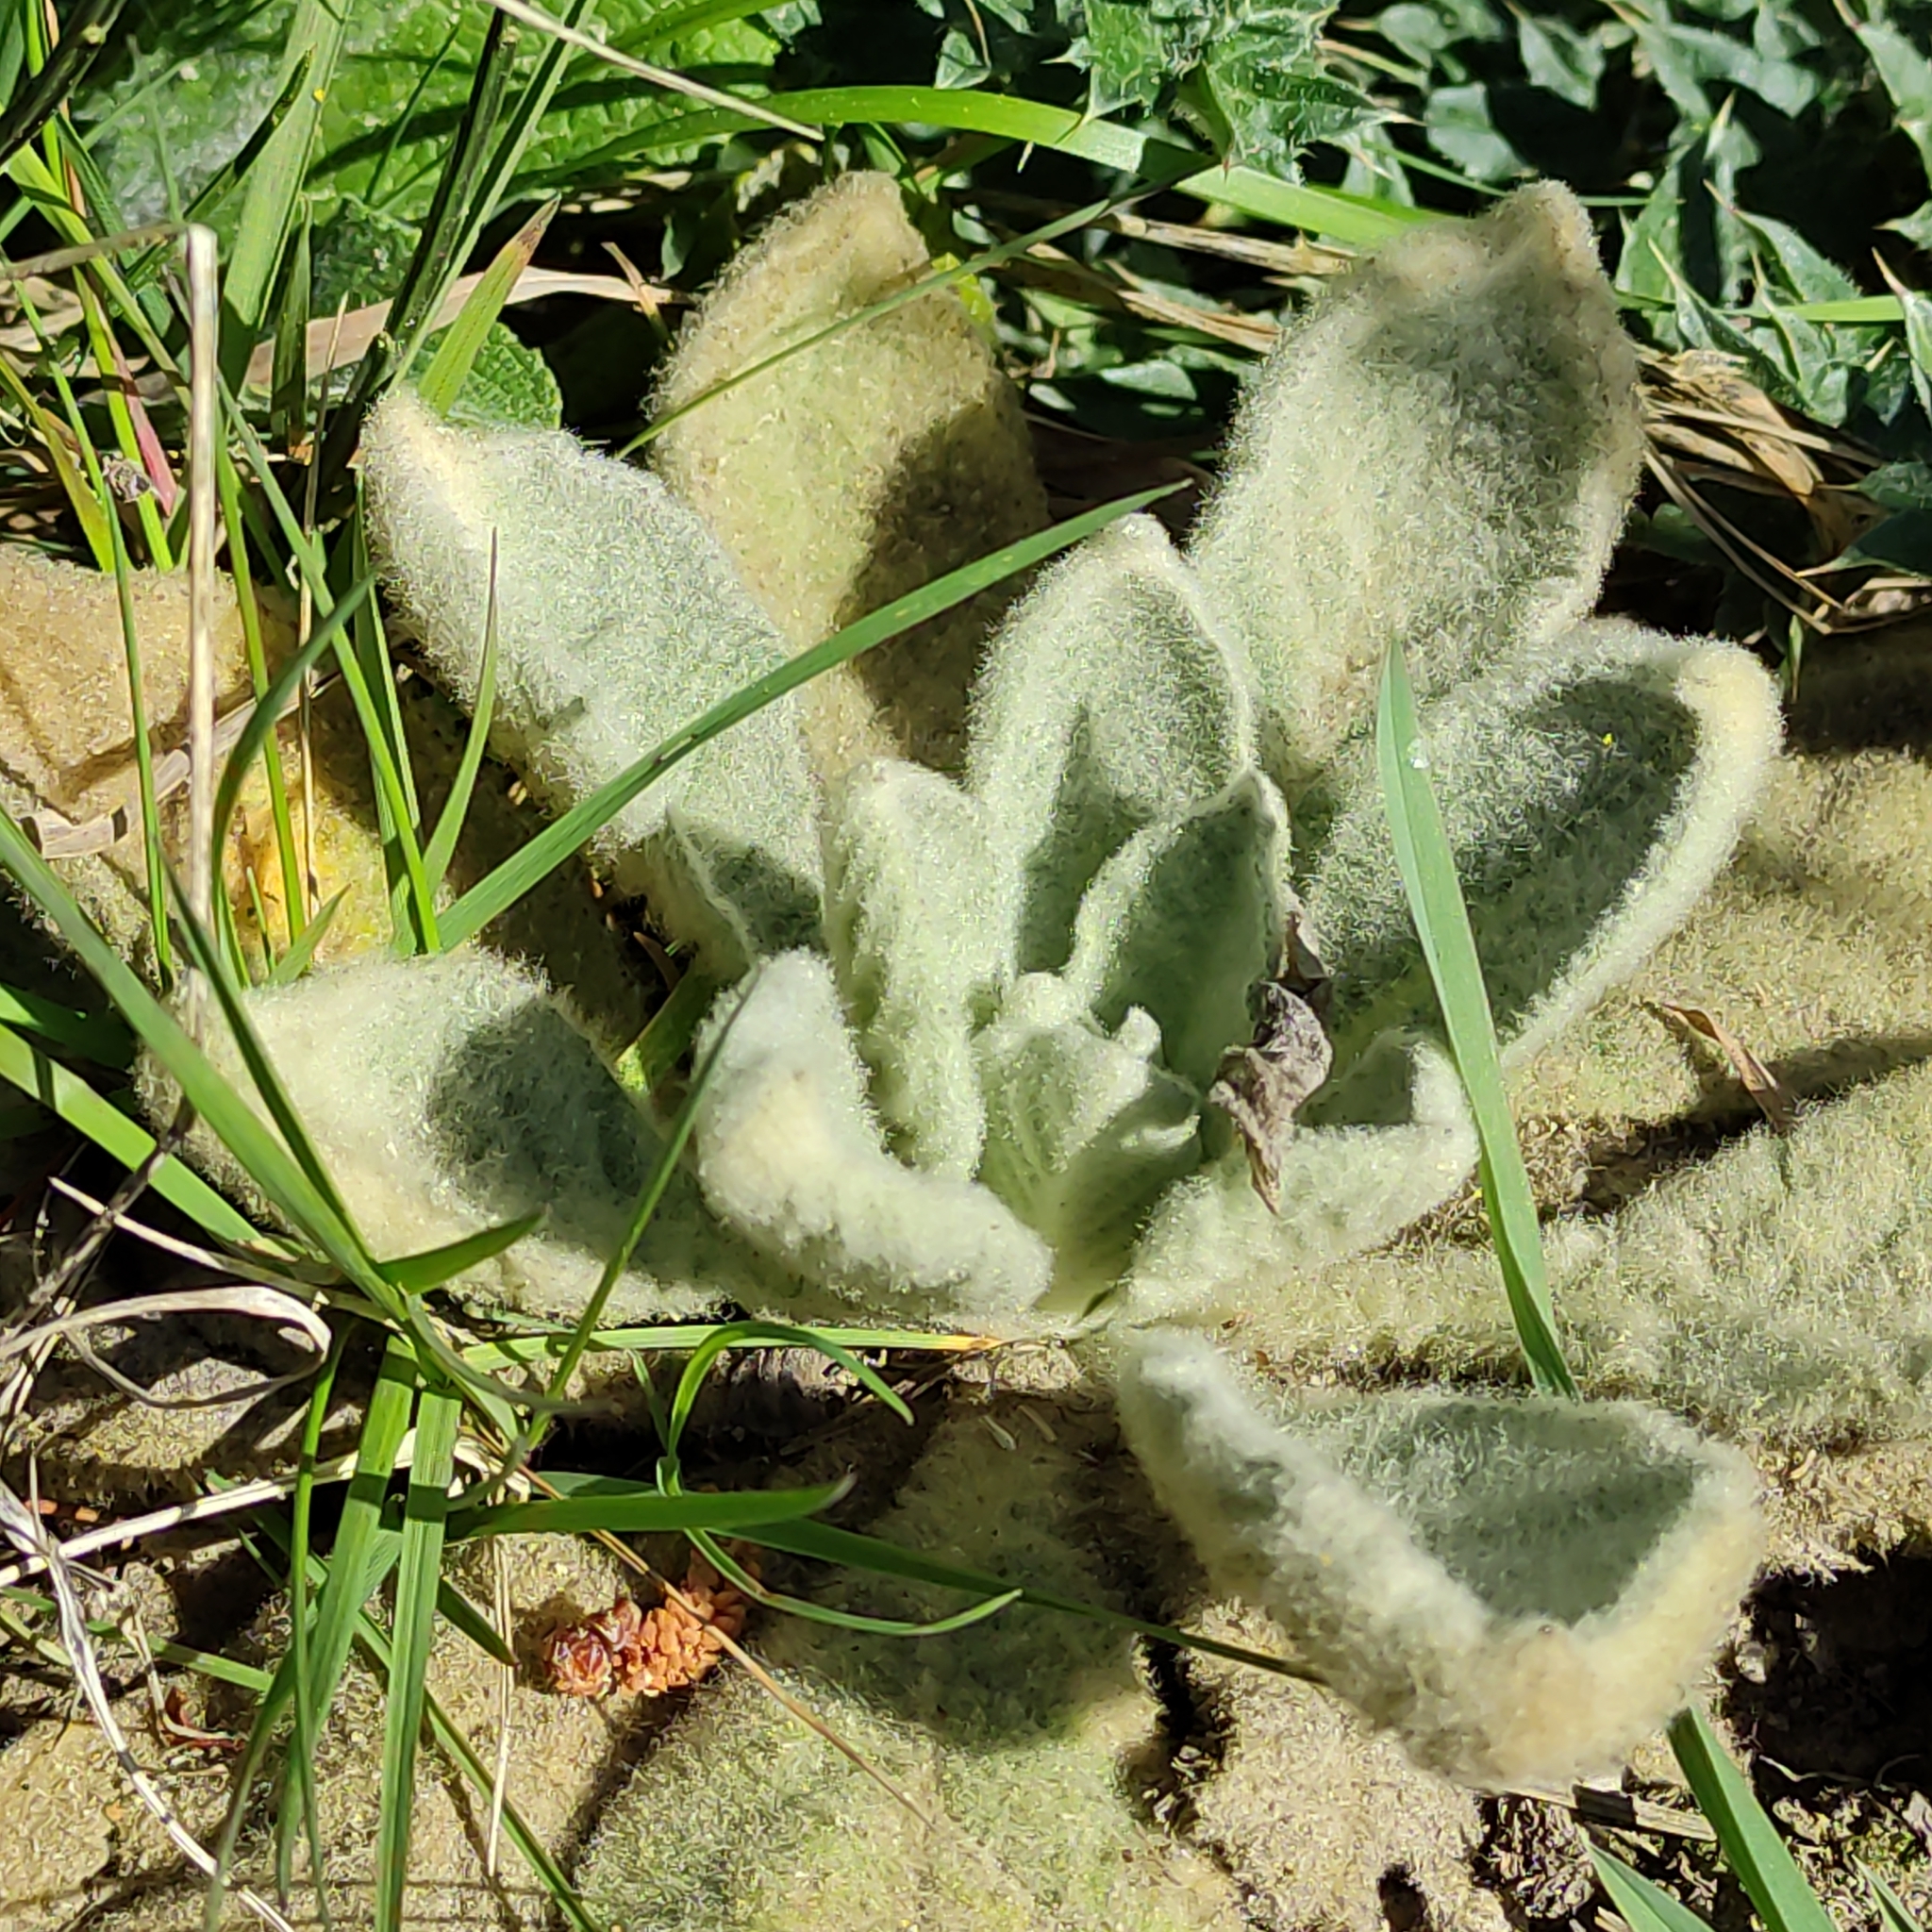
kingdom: Plantae
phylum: Tracheophyta
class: Magnoliopsida
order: Lamiales
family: Scrophulariaceae
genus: Verbascum
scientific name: Verbascum thapsus
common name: Common mullein
